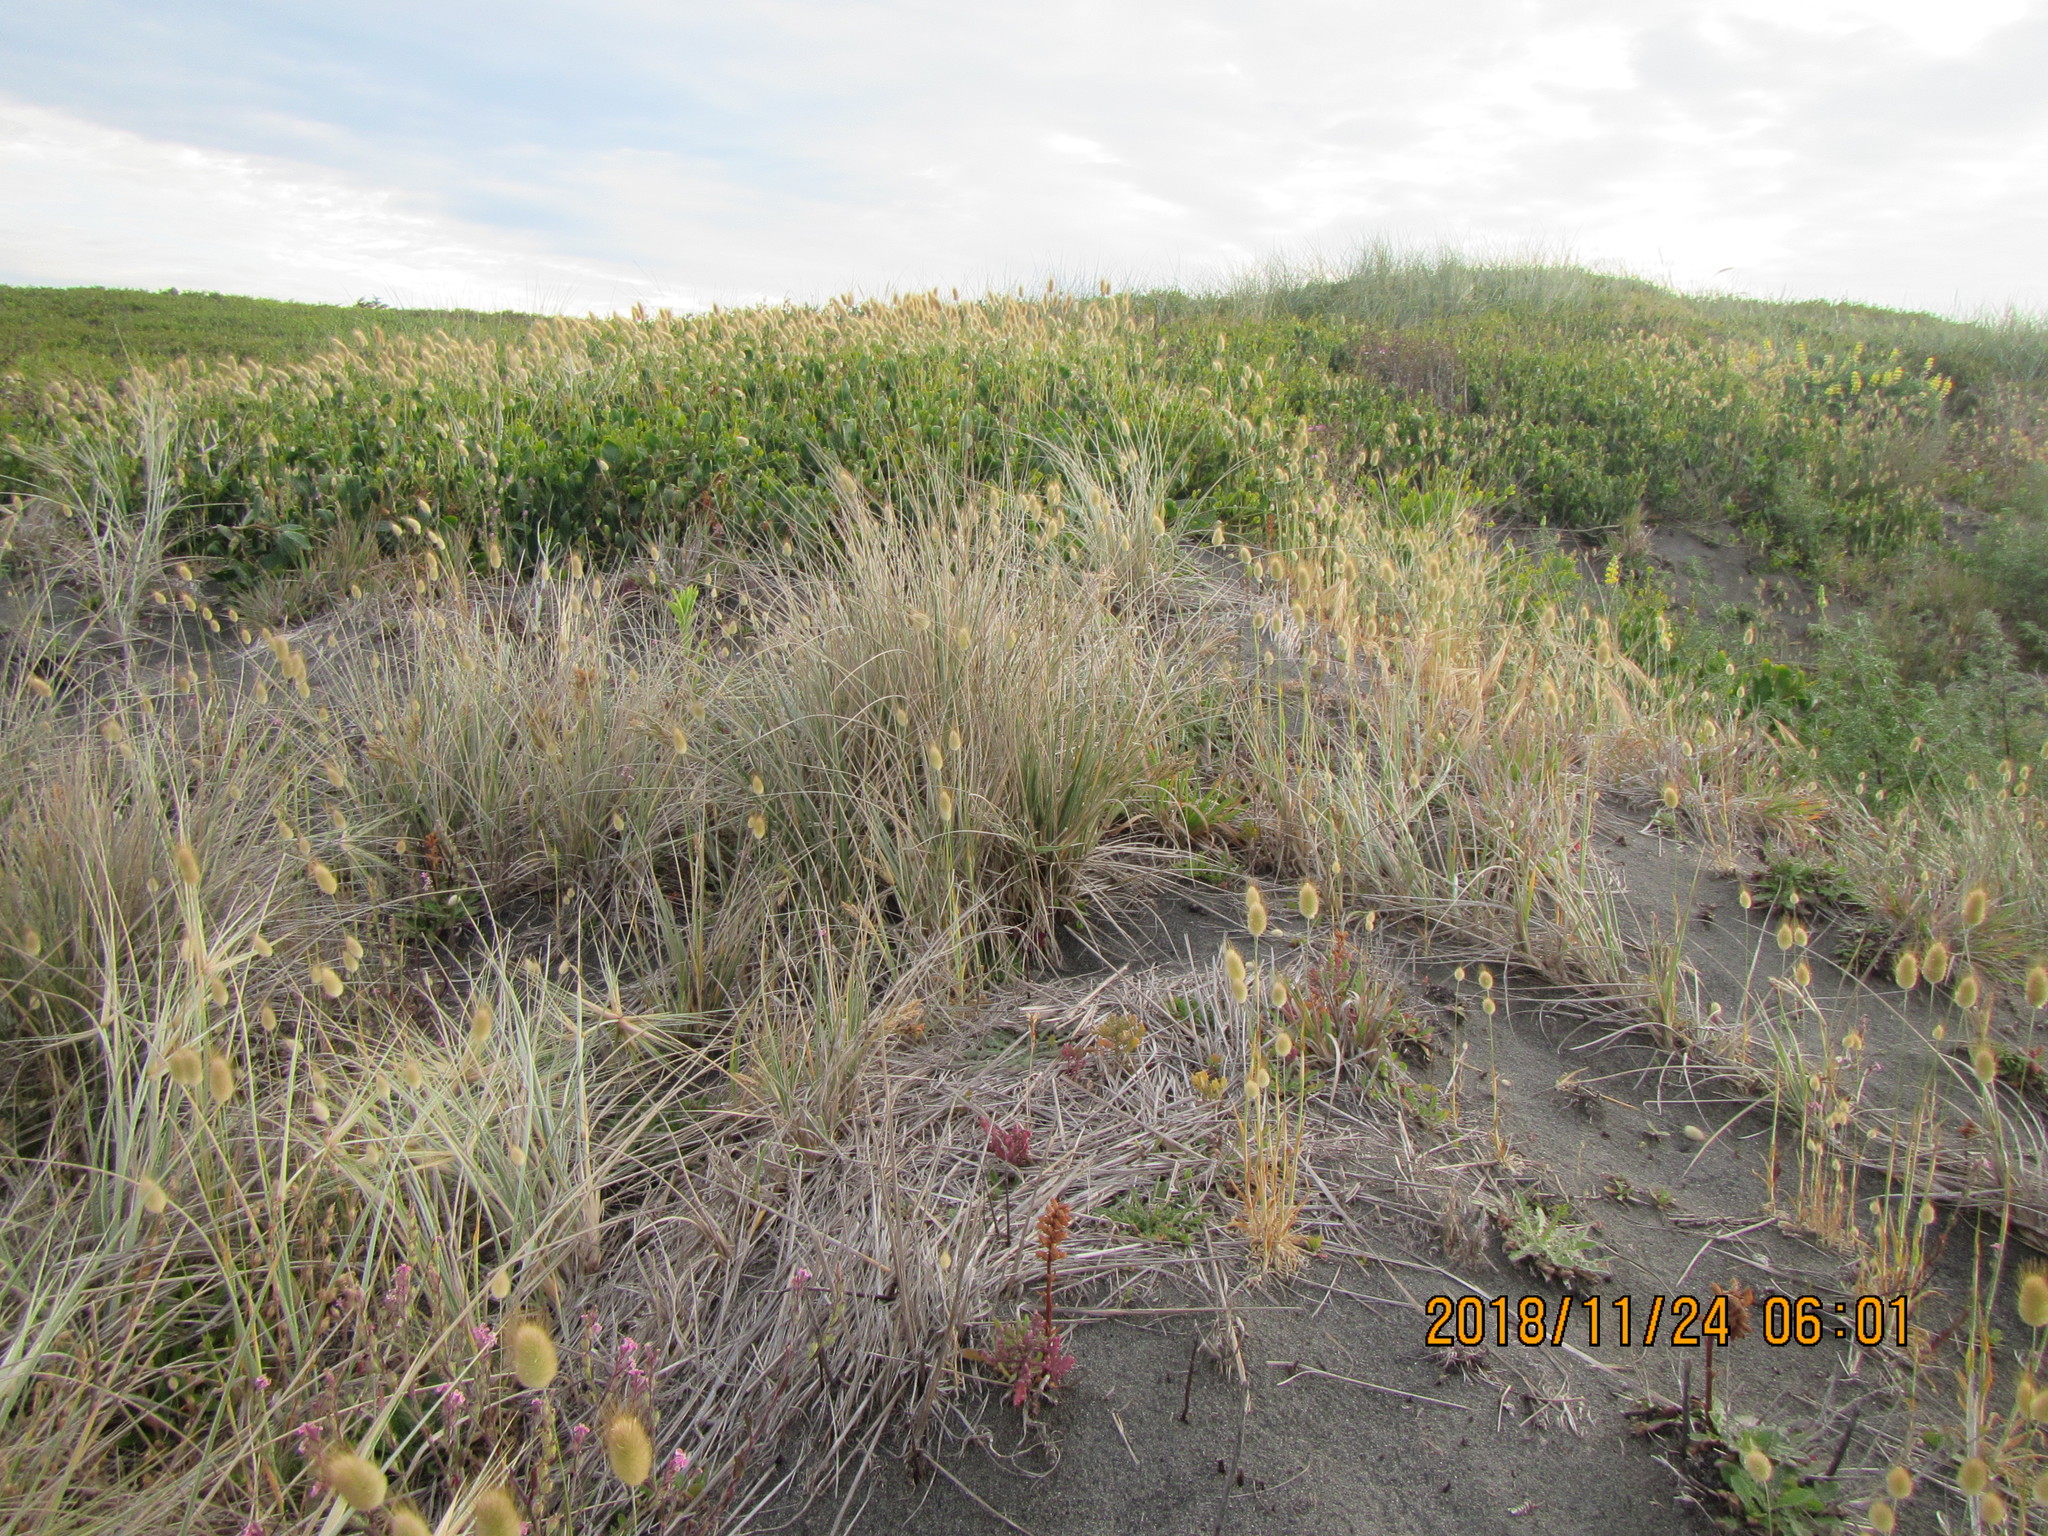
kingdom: Plantae
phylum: Tracheophyta
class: Liliopsida
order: Poales
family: Poaceae
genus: Lagurus
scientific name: Lagurus ovatus
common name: Hare's-tail
